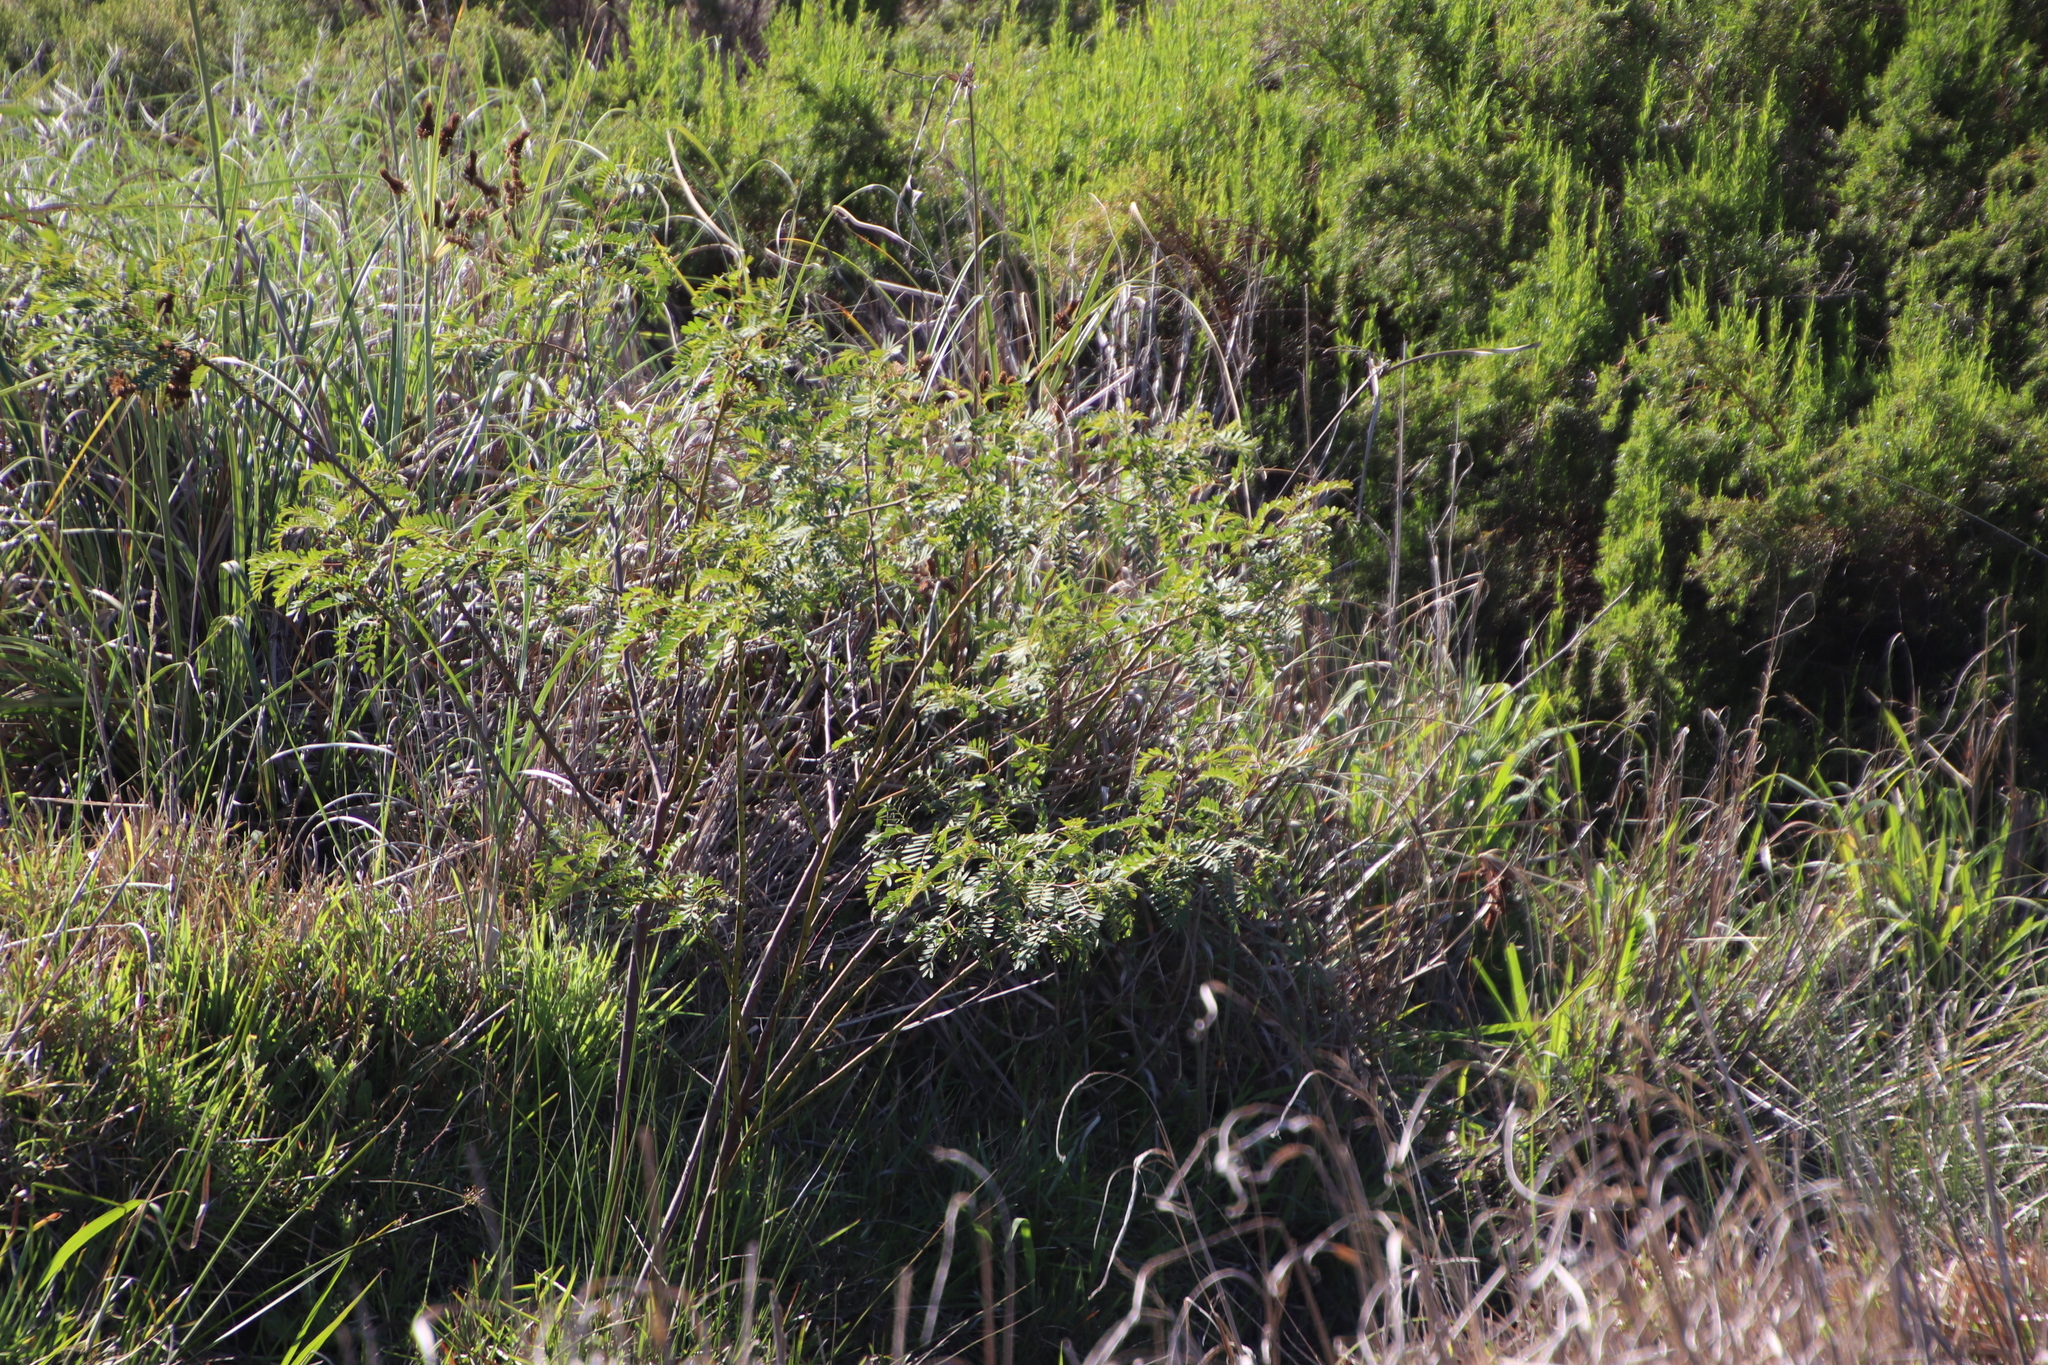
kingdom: Plantae
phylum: Tracheophyta
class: Magnoliopsida
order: Fabales
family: Fabaceae
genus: Sesbania
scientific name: Sesbania punicea
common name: Rattlebox
